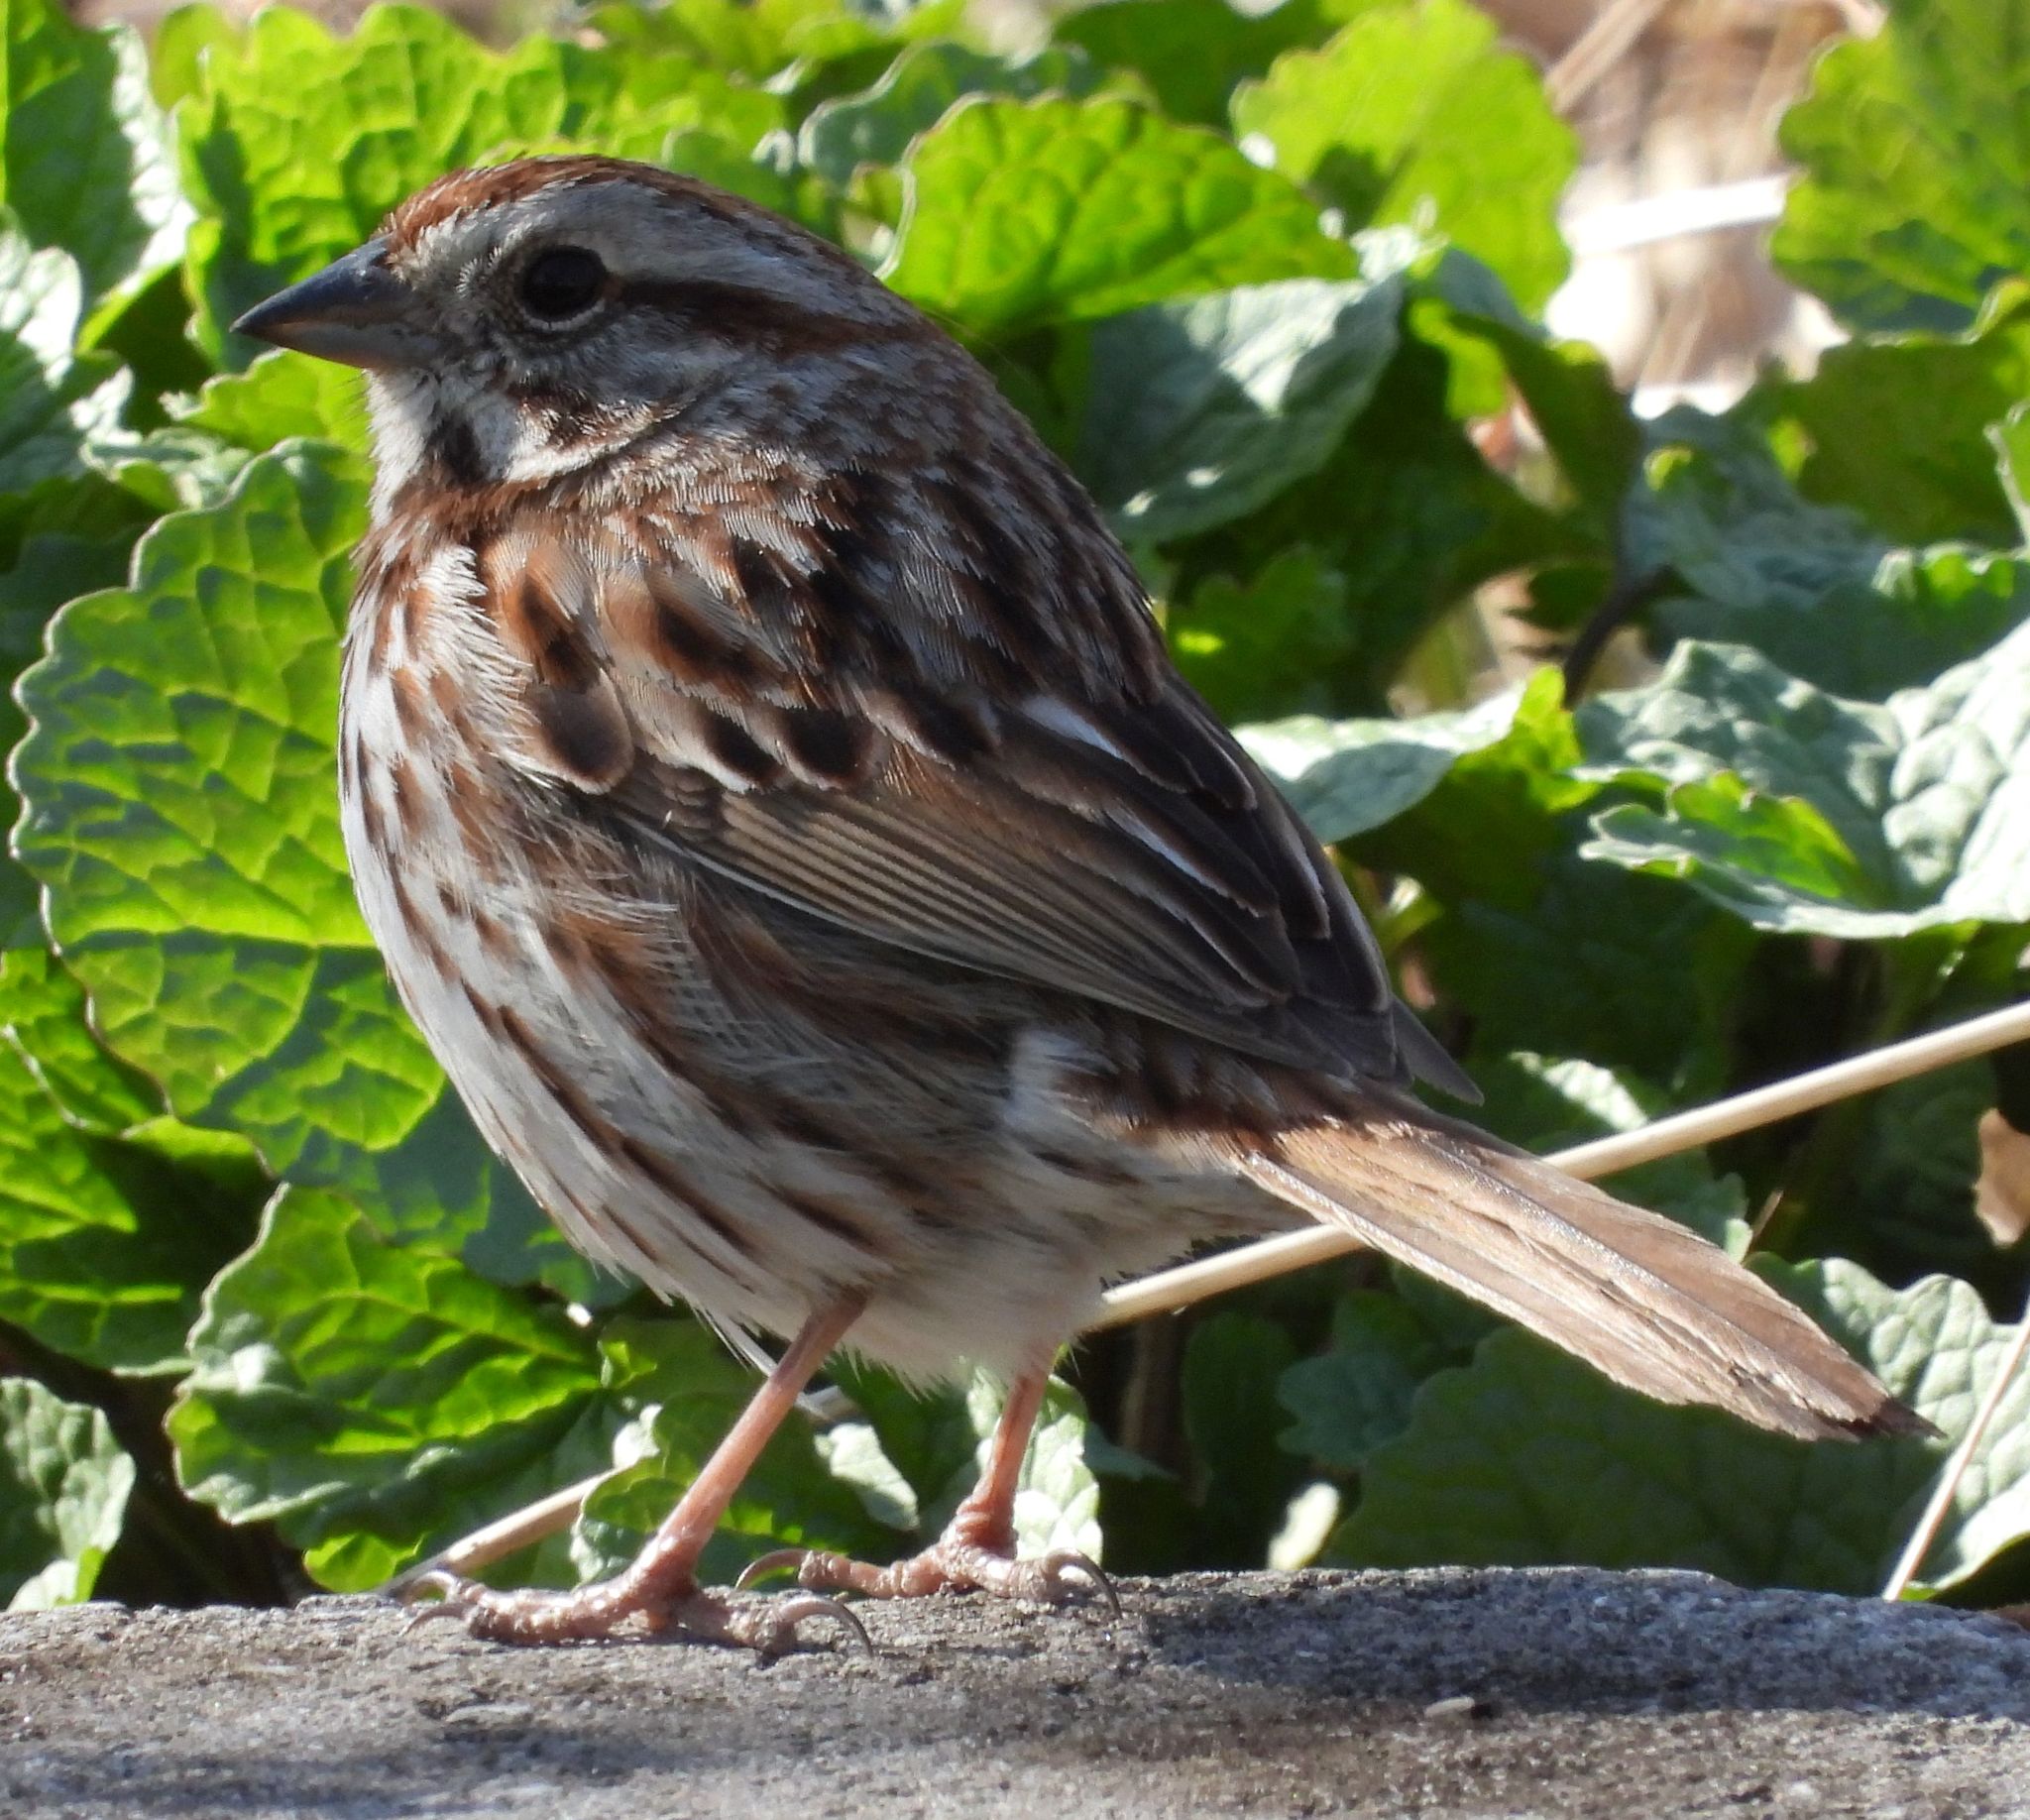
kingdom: Animalia
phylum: Chordata
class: Aves
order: Passeriformes
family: Passerellidae
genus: Melospiza
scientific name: Melospiza melodia
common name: Song sparrow
